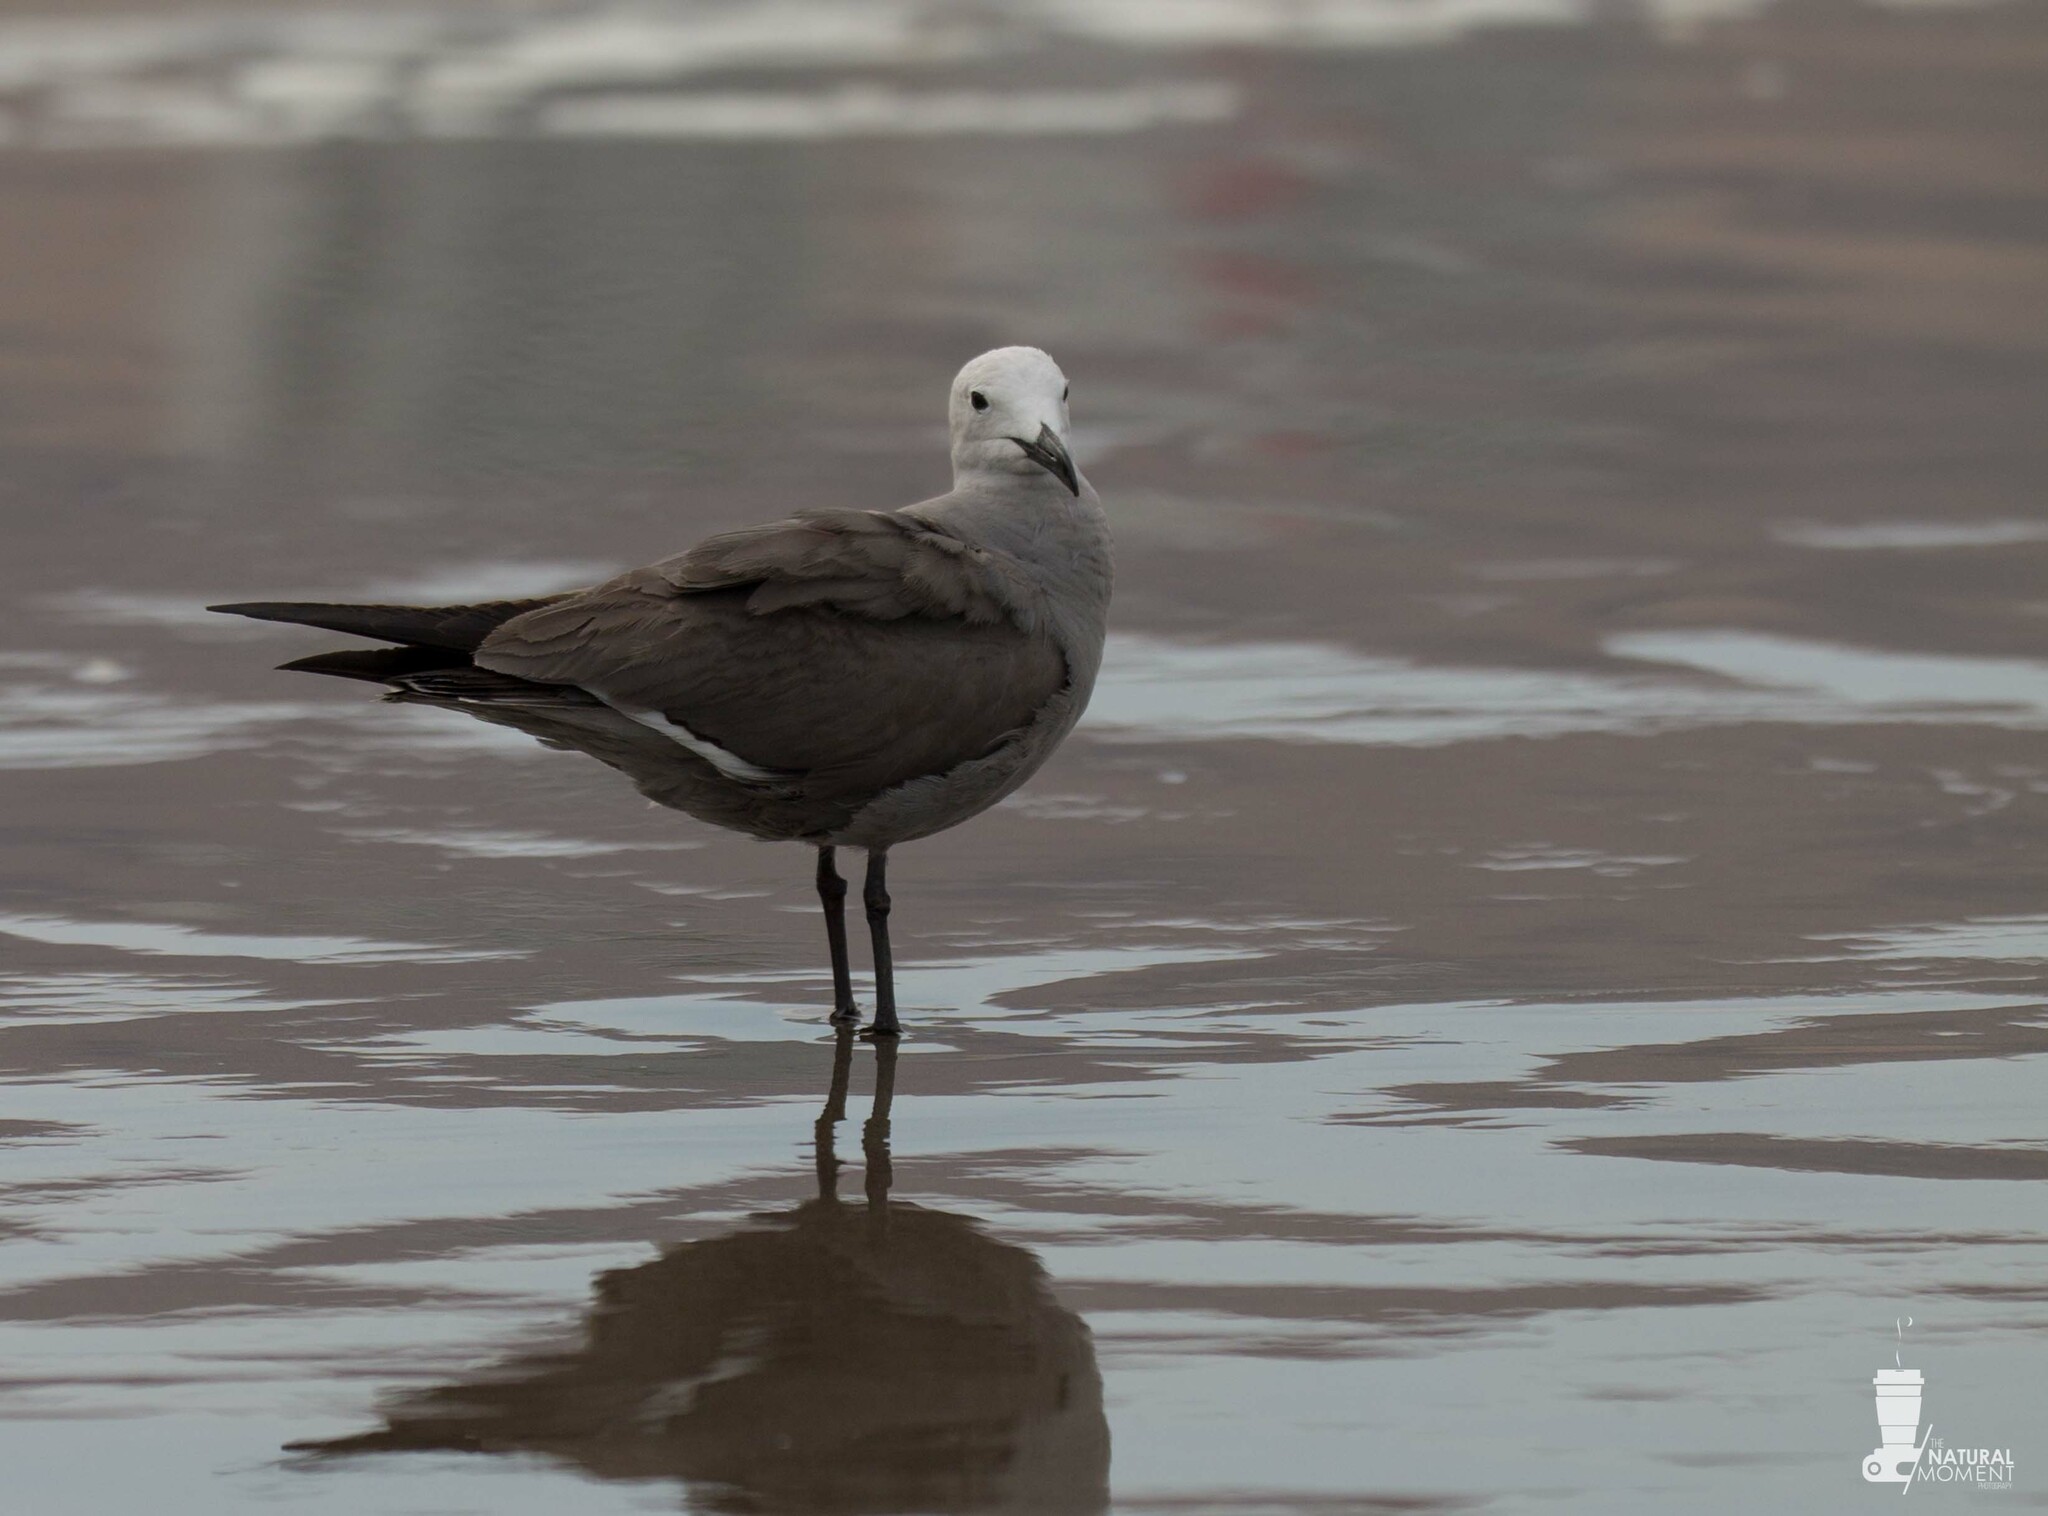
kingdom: Animalia
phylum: Chordata
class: Aves
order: Charadriiformes
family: Laridae
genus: Leucophaeus
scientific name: Leucophaeus modestus
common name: Gray gull
